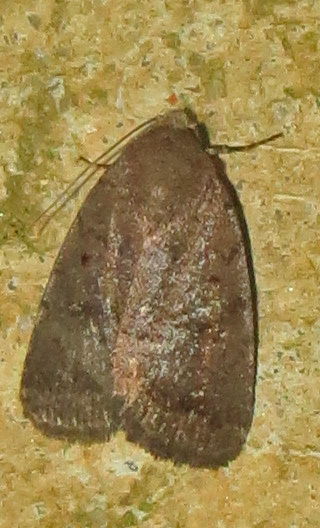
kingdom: Animalia
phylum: Arthropoda
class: Insecta
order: Lepidoptera
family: Noctuidae
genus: Athetis
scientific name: Athetis tarda
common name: Slowpoke moth
